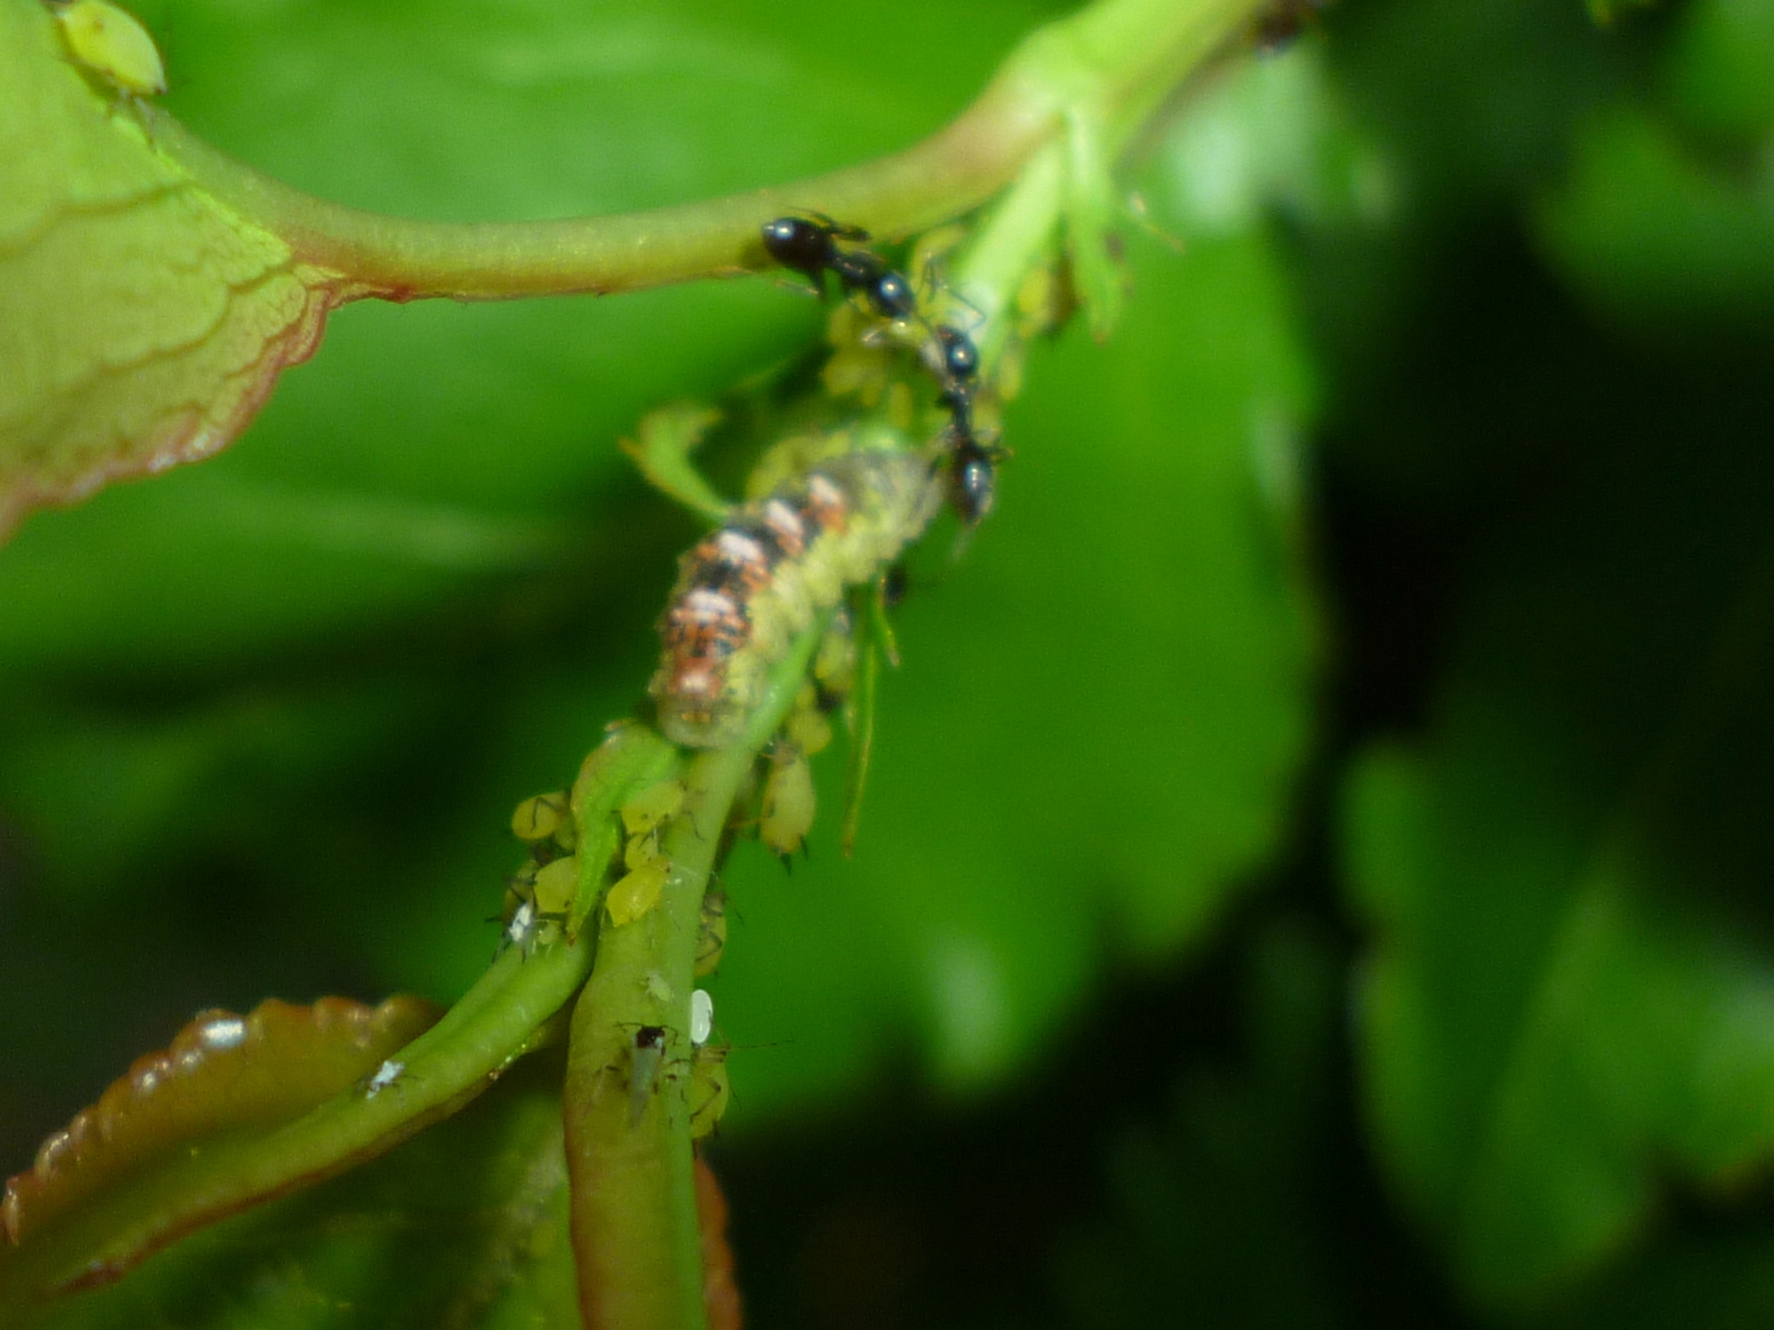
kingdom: Animalia
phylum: Arthropoda
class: Insecta
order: Hymenoptera
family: Formicidae
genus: Tapinoma
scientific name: Tapinoma sessile
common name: Odorous house ant
